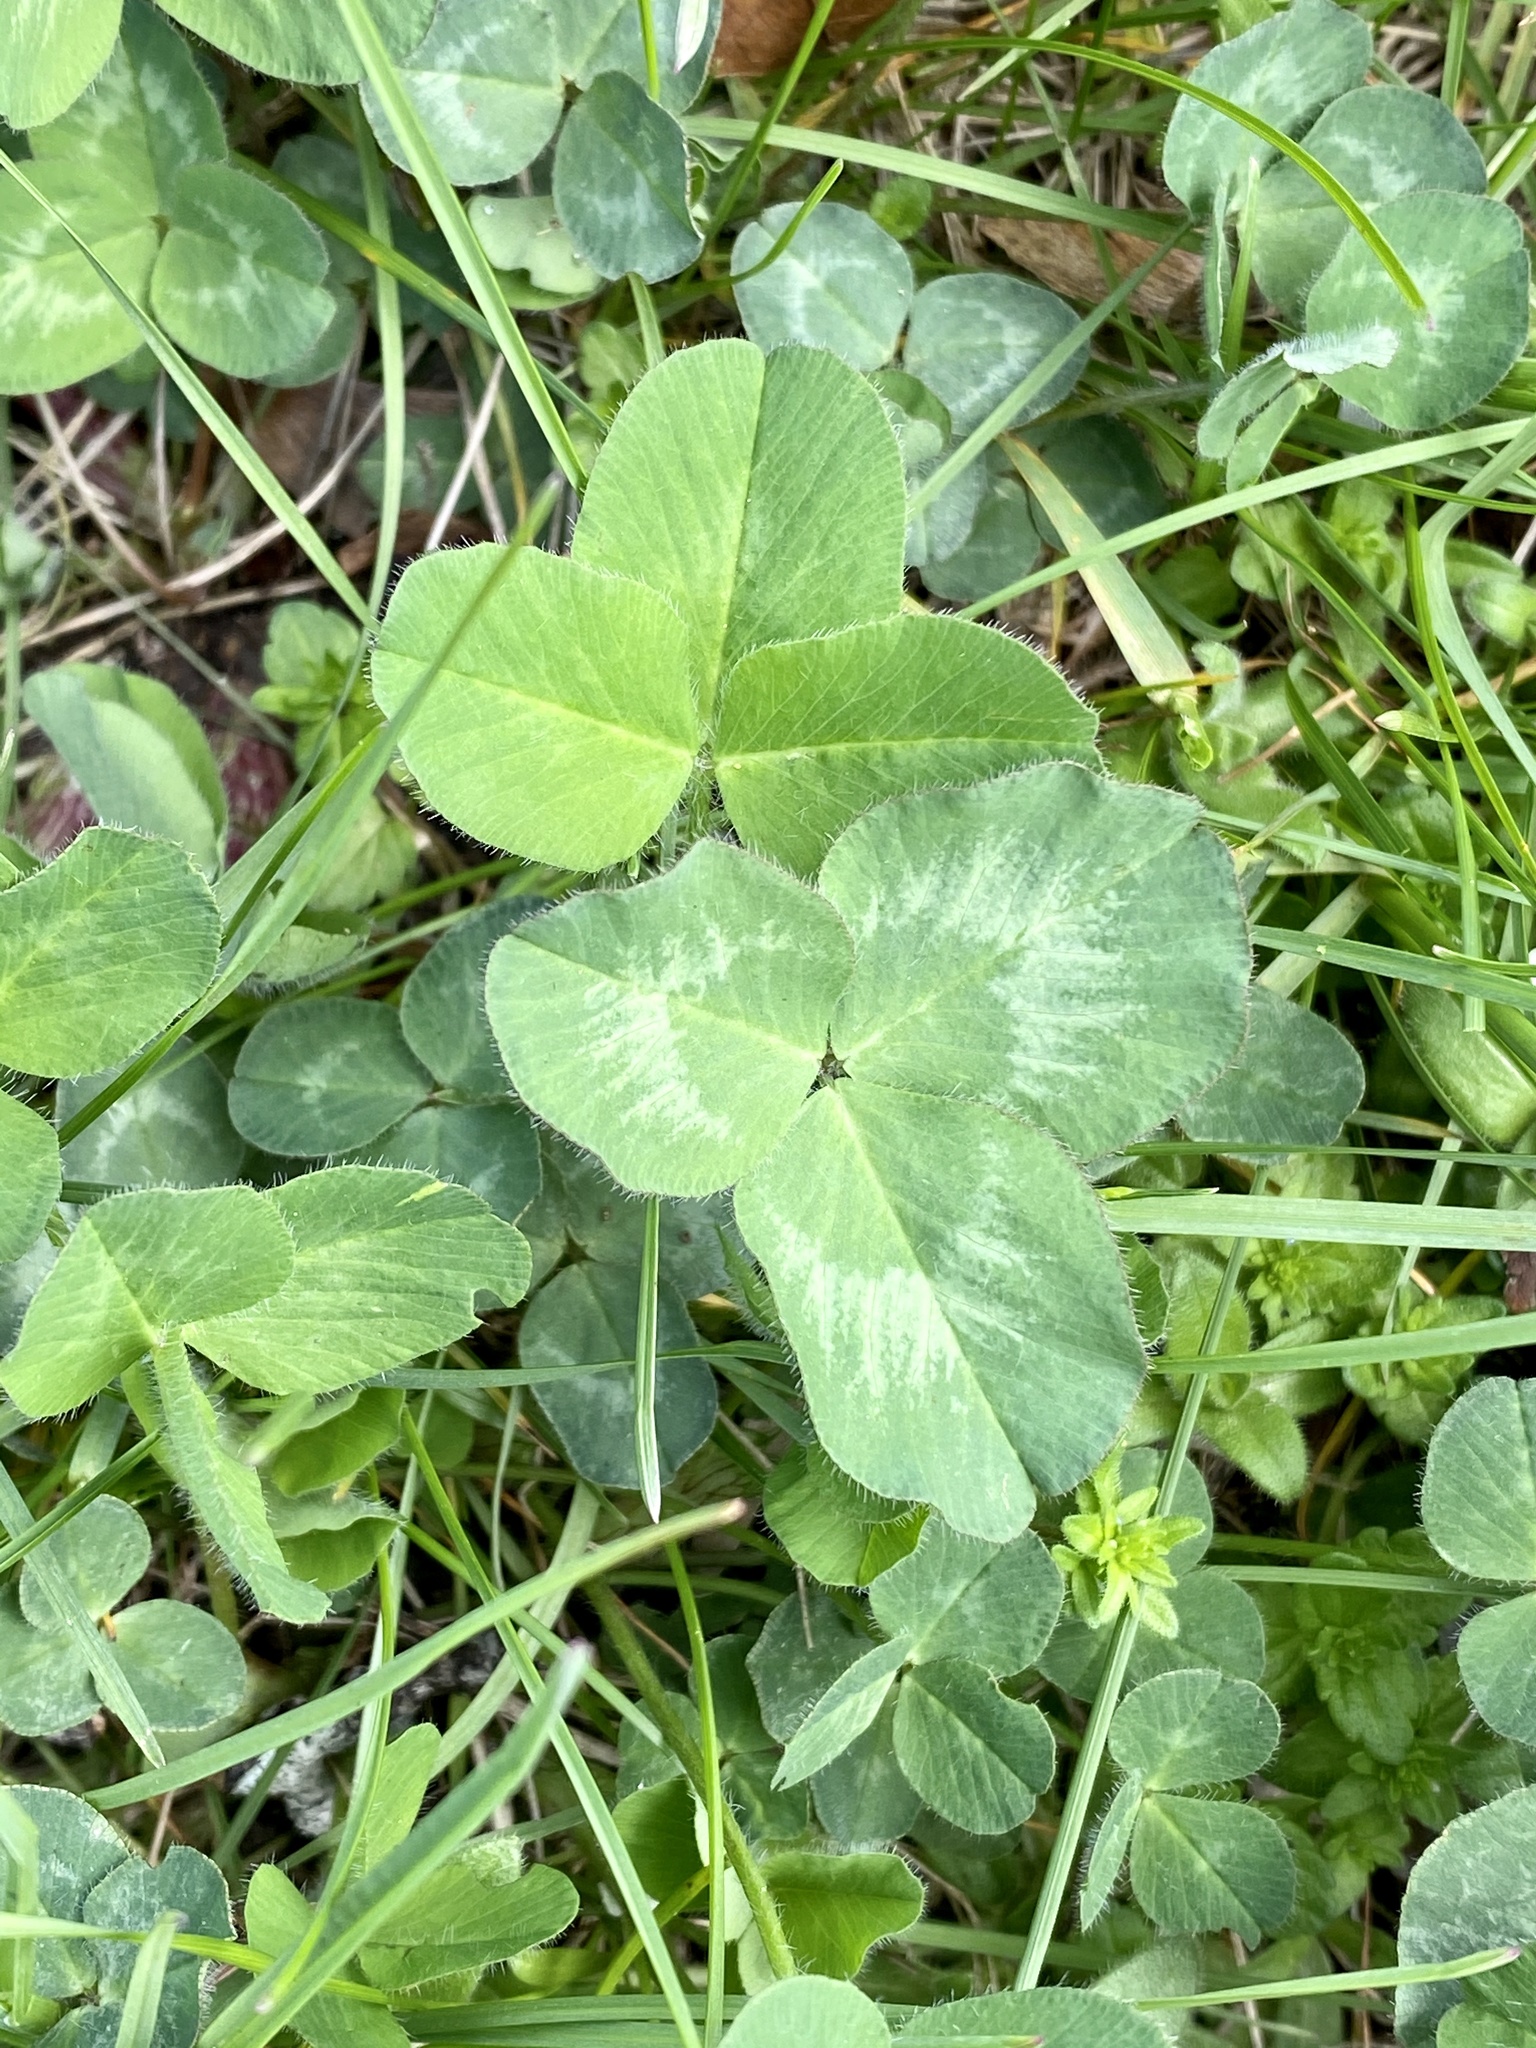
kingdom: Plantae
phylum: Tracheophyta
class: Magnoliopsida
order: Fabales
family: Fabaceae
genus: Trifolium
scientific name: Trifolium pratense
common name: Red clover
